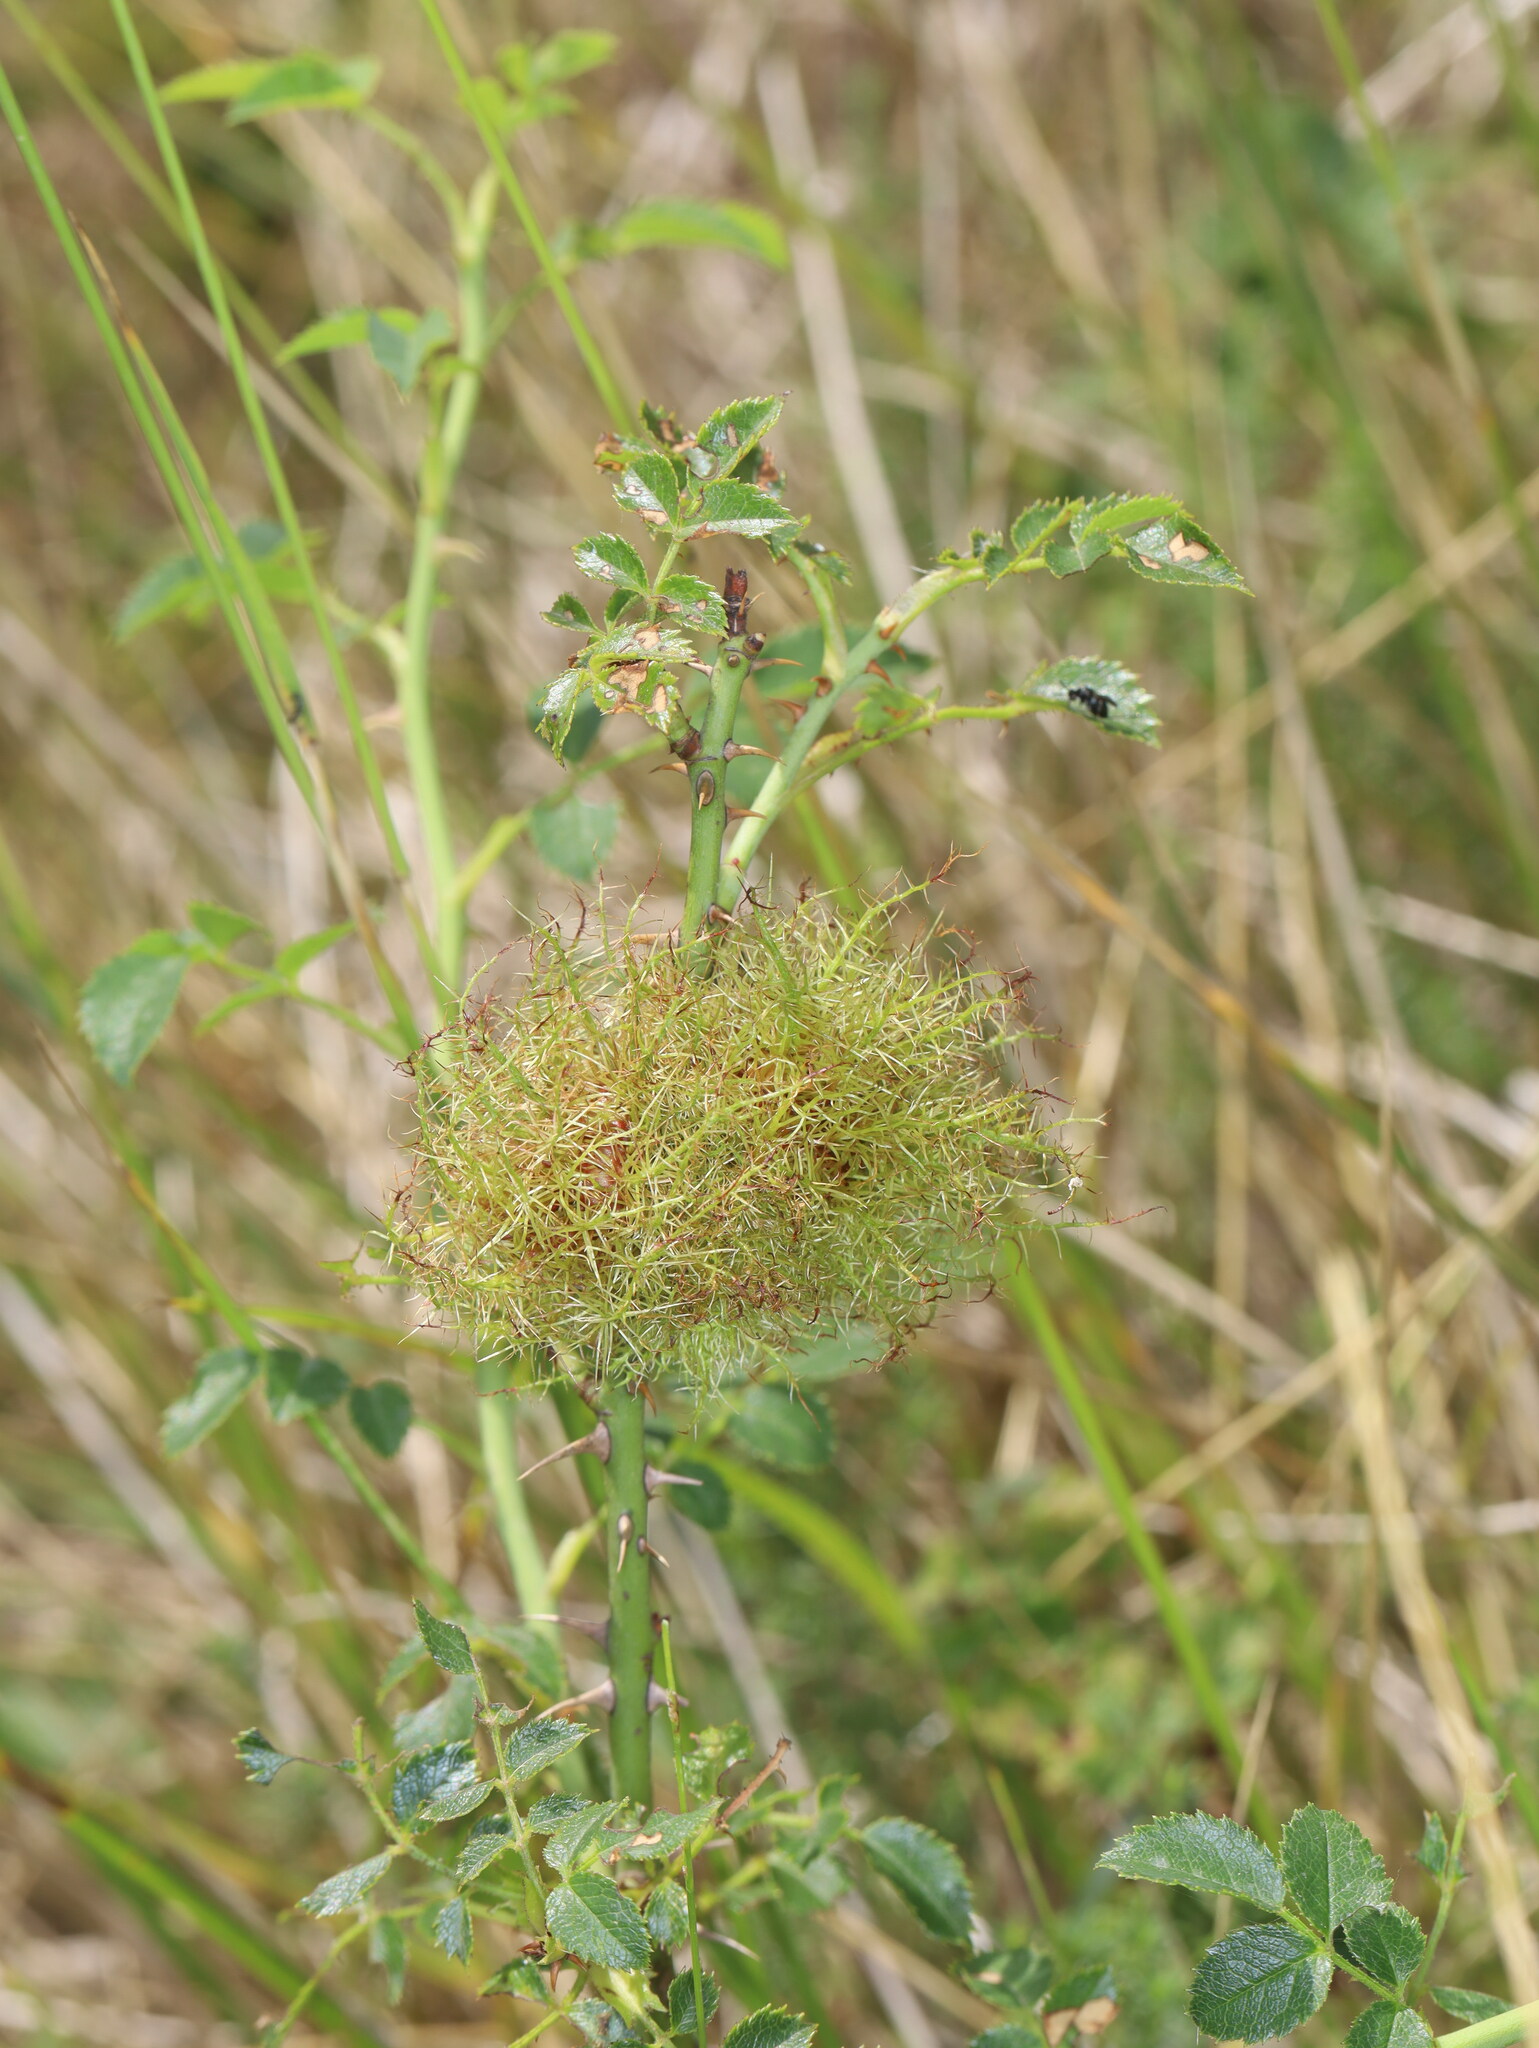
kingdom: Animalia
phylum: Arthropoda
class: Insecta
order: Hymenoptera
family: Cynipidae
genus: Diplolepis
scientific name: Diplolepis rosae
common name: Bedeguar gall
